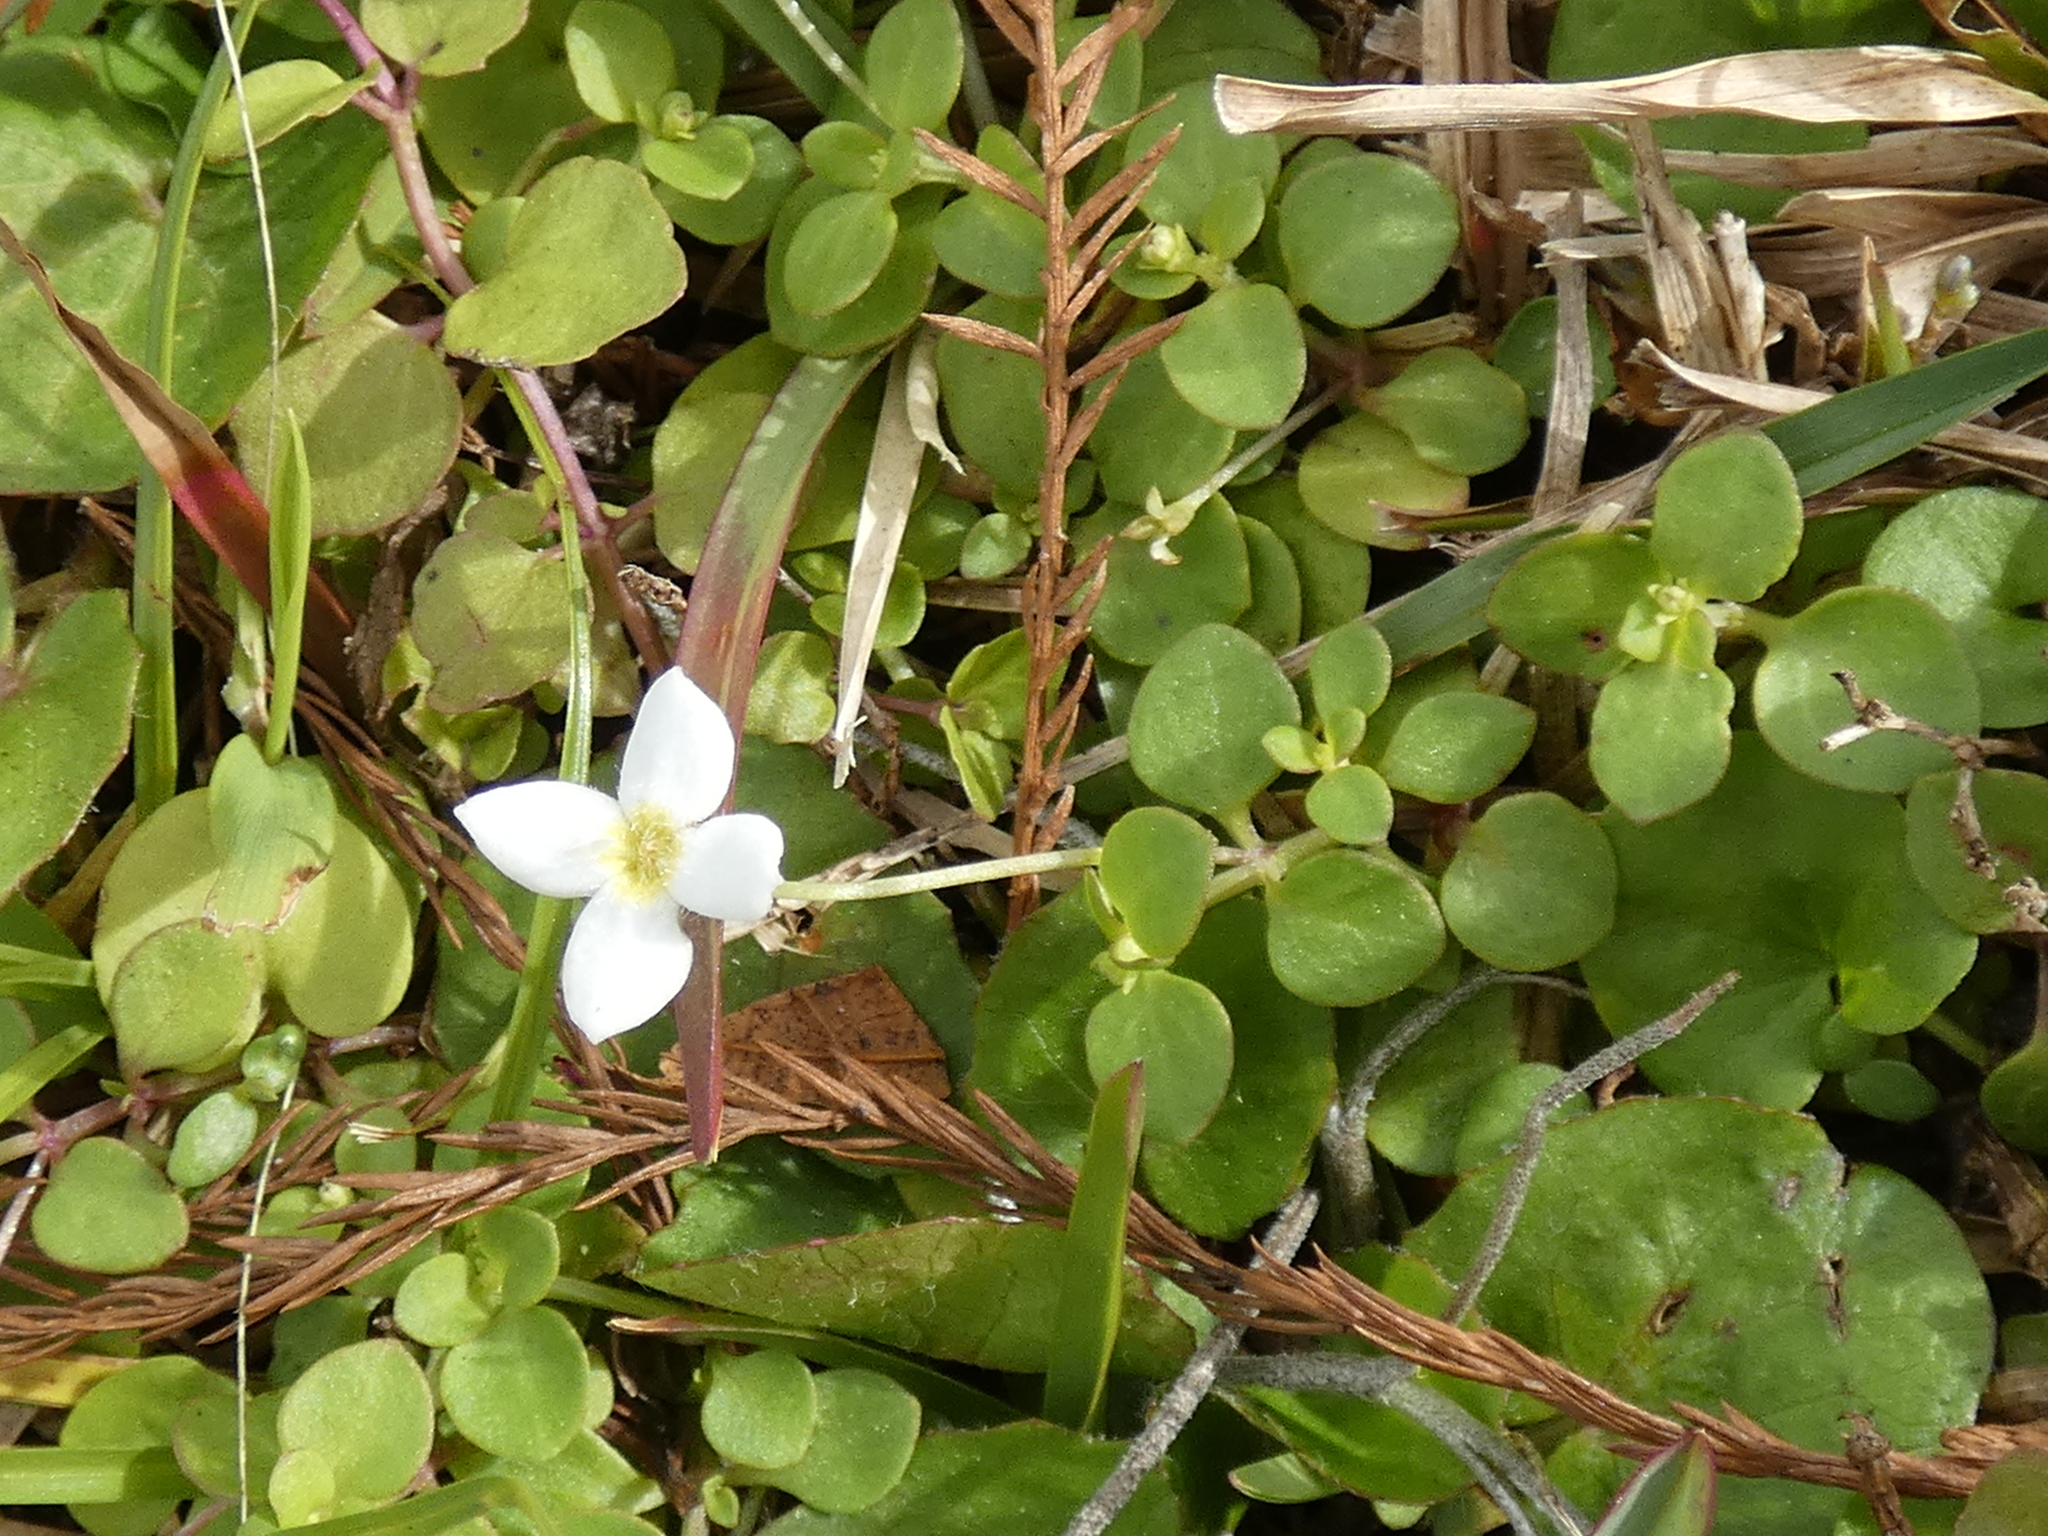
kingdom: Plantae
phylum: Tracheophyta
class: Magnoliopsida
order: Gentianales
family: Rubiaceae
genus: Houstonia
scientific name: Houstonia procumbens
